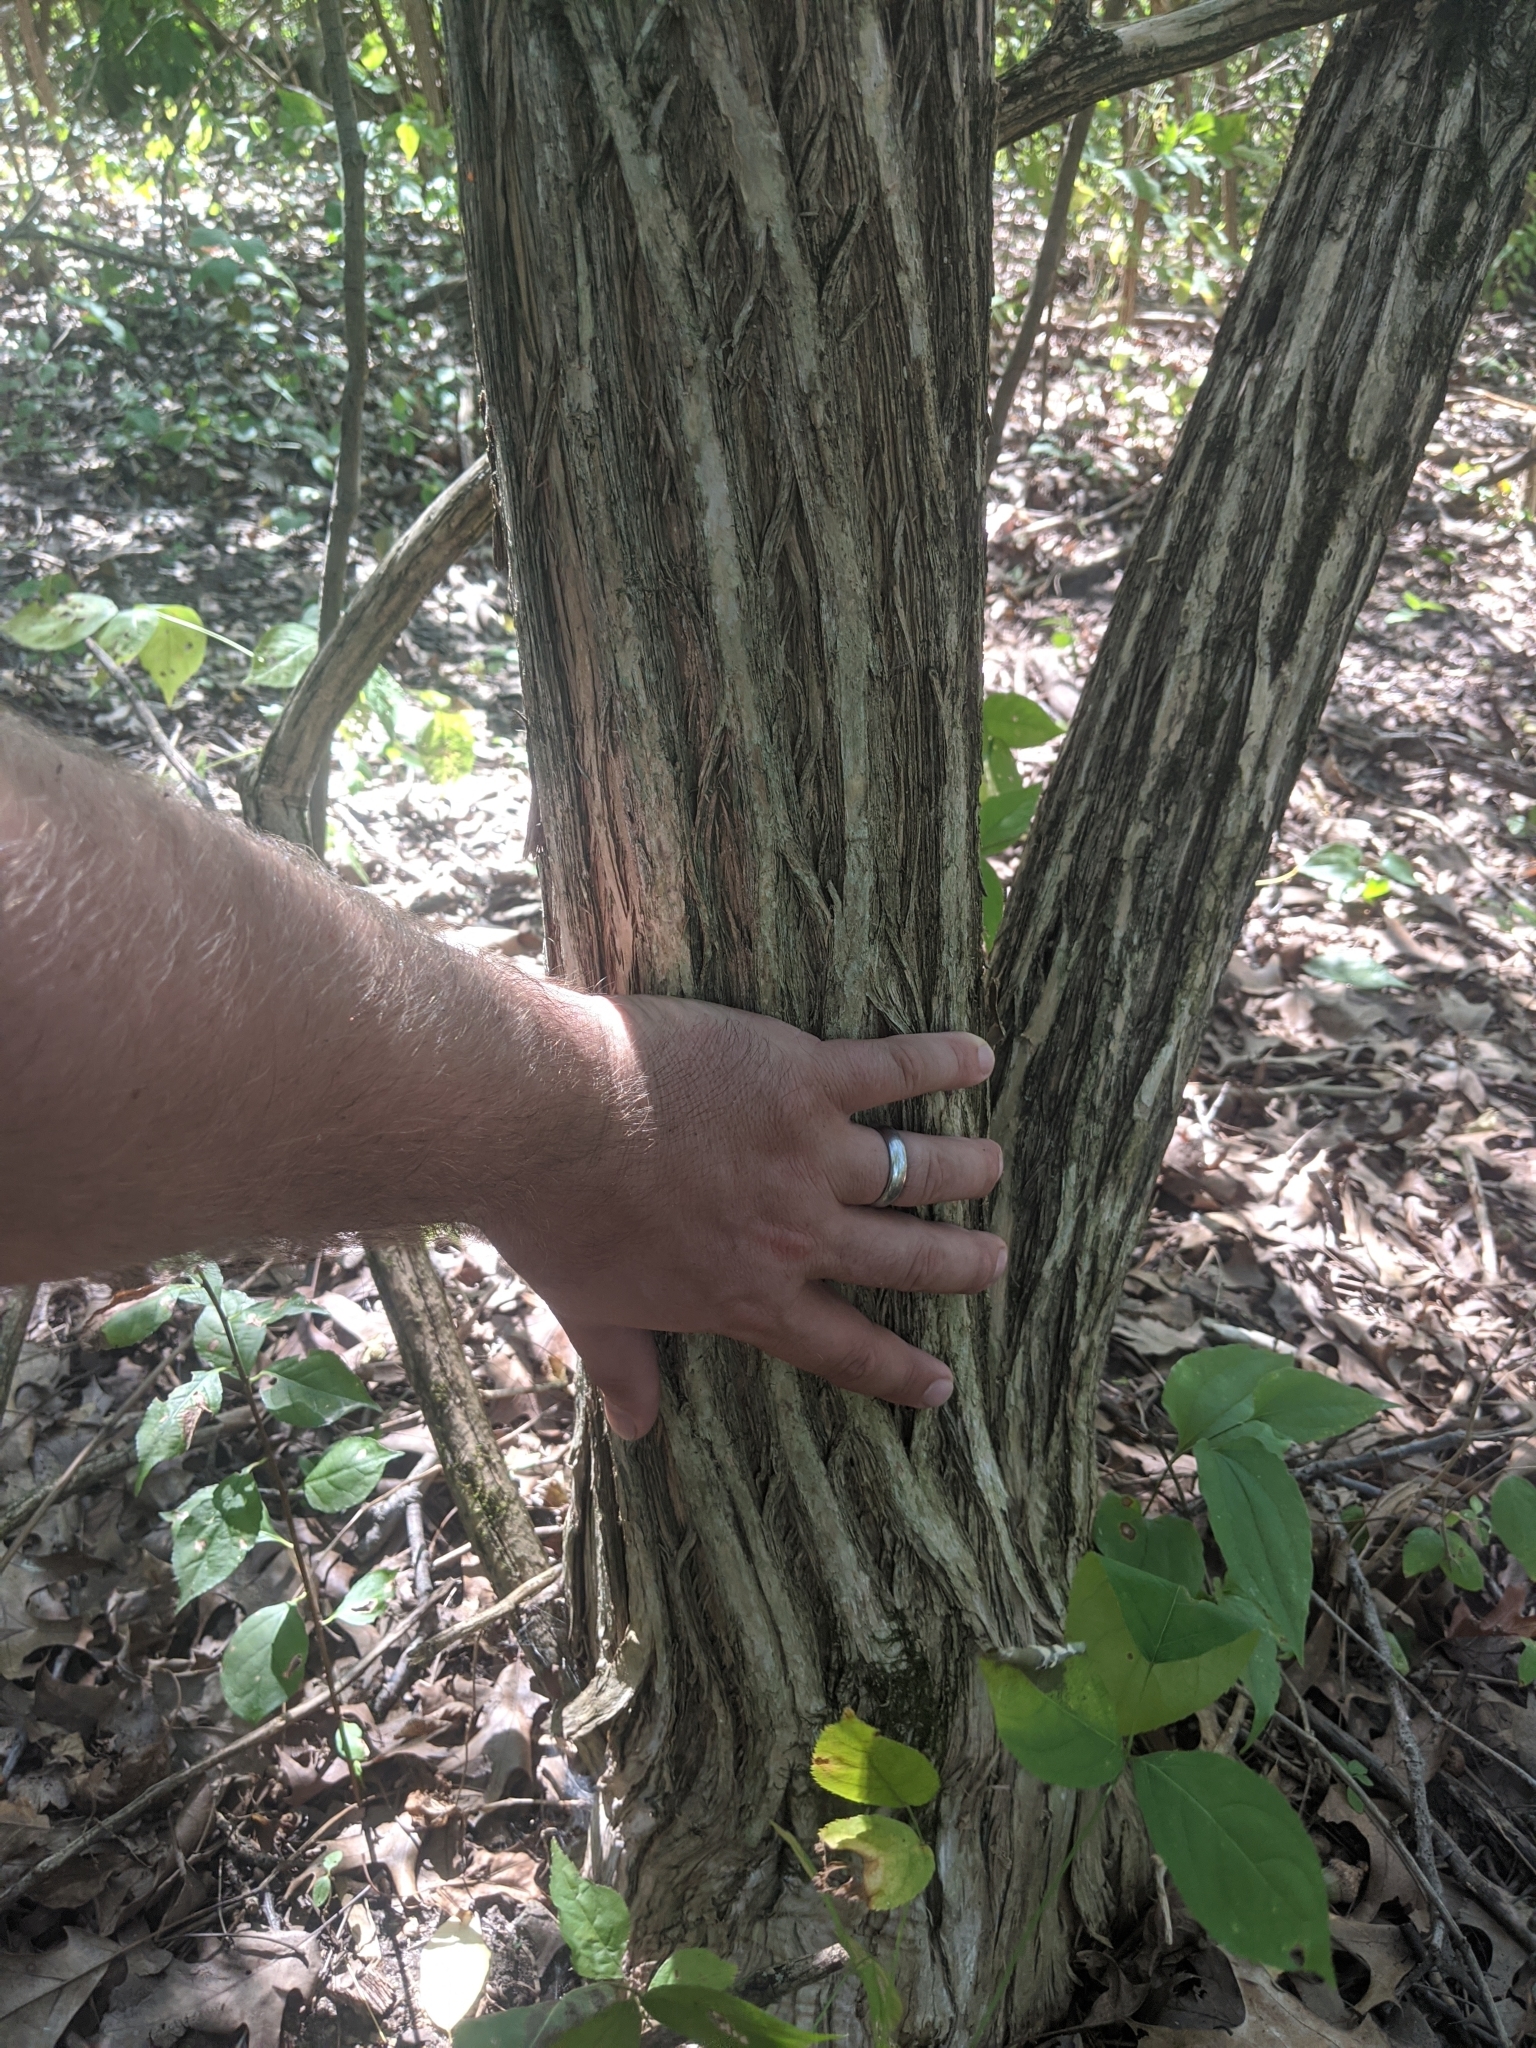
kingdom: Plantae
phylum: Tracheophyta
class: Magnoliopsida
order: Dipsacales
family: Caprifoliaceae
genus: Lonicera
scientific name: Lonicera maackii
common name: Amur honeysuckle
